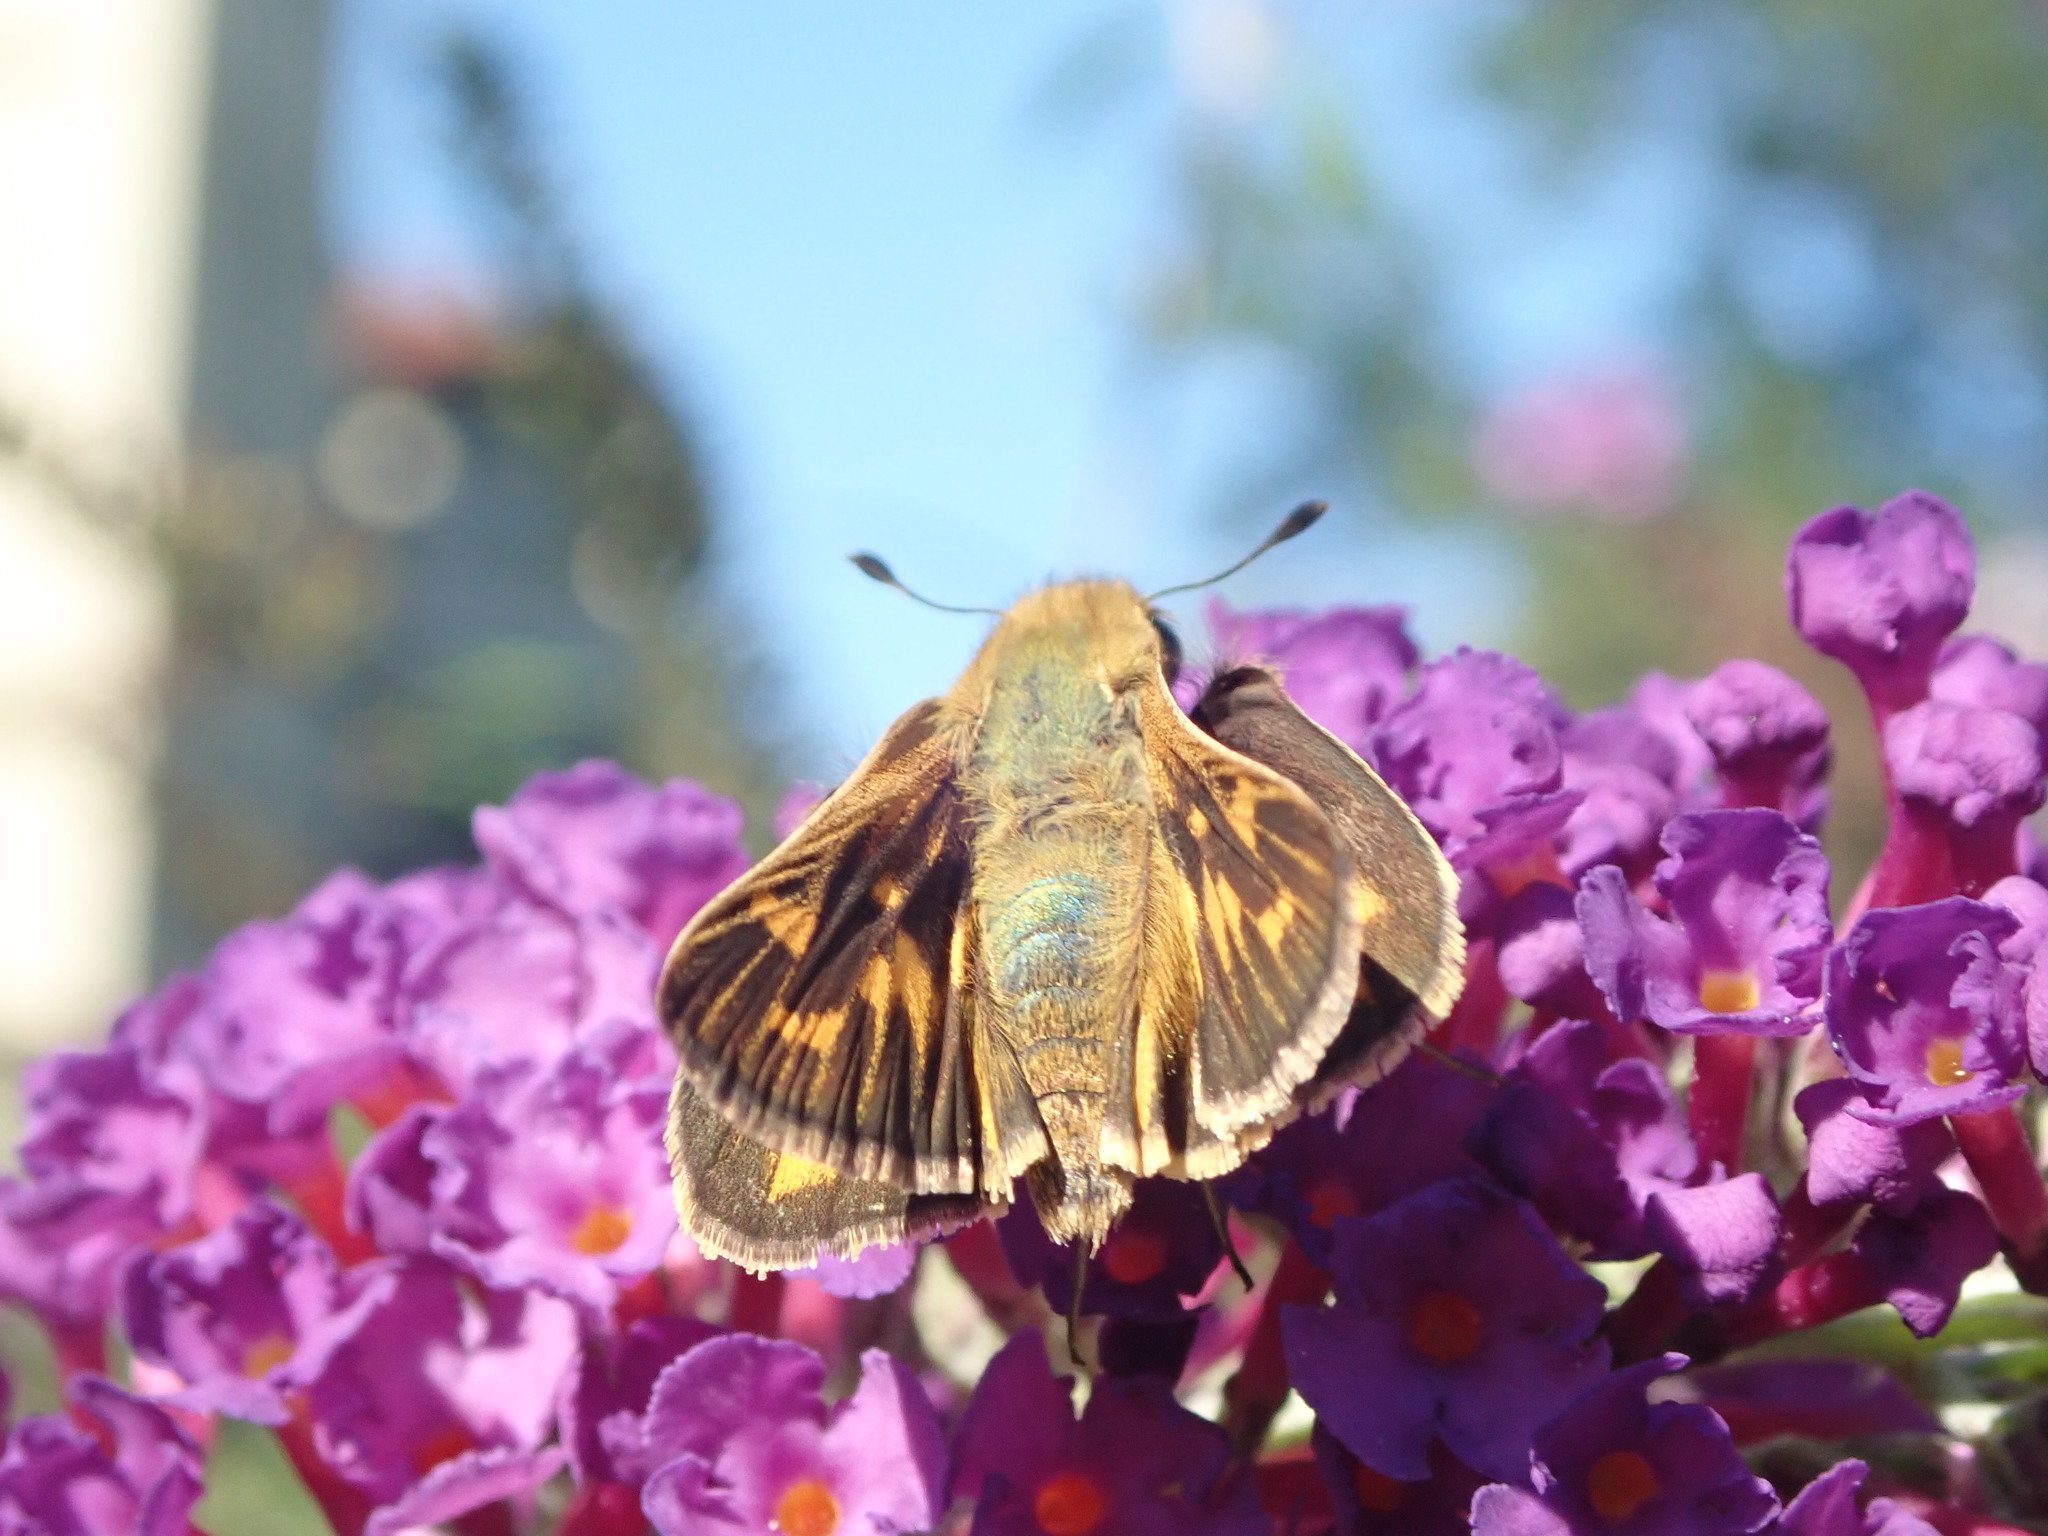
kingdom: Animalia
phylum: Arthropoda
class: Insecta
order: Lepidoptera
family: Hesperiidae
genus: Hylephila
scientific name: Hylephila phyleus
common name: Fiery skipper
